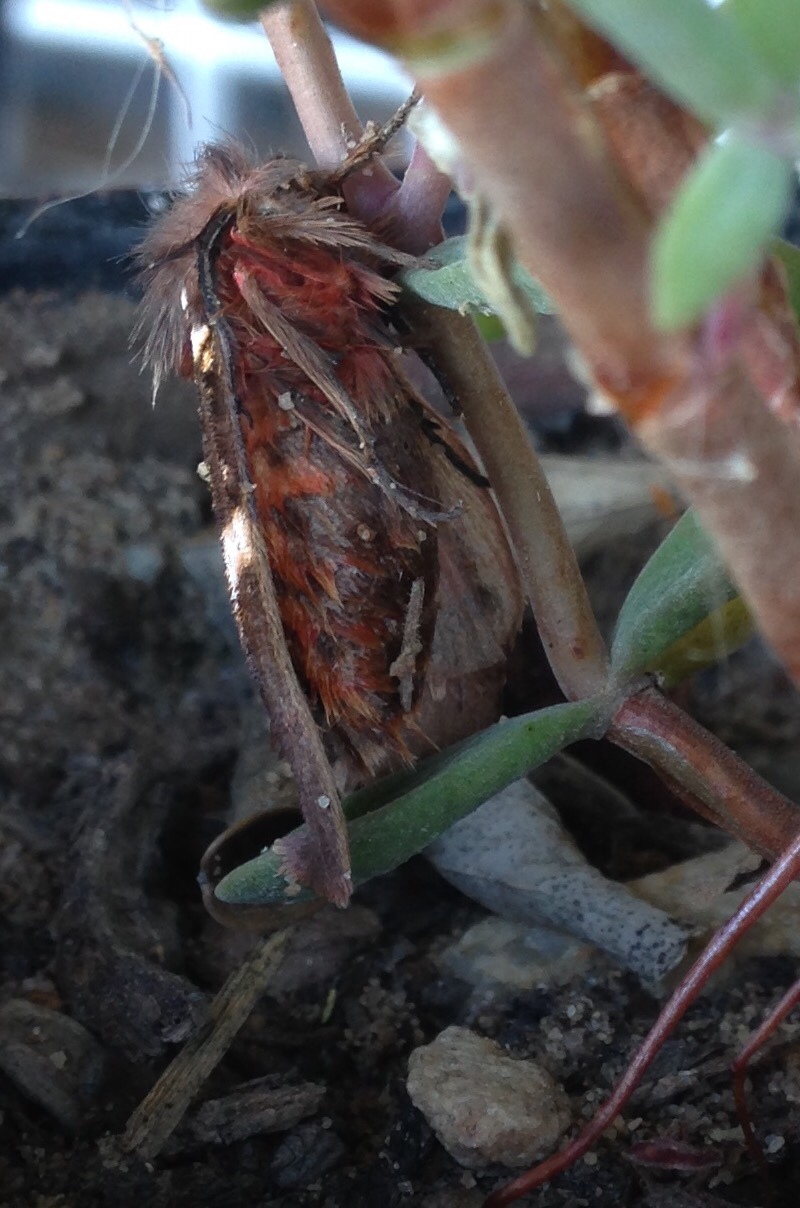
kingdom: Animalia
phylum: Arthropoda
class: Insecta
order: Lepidoptera
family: Erebidae
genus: Lymantria
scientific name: Lymantria Morasa modesta
